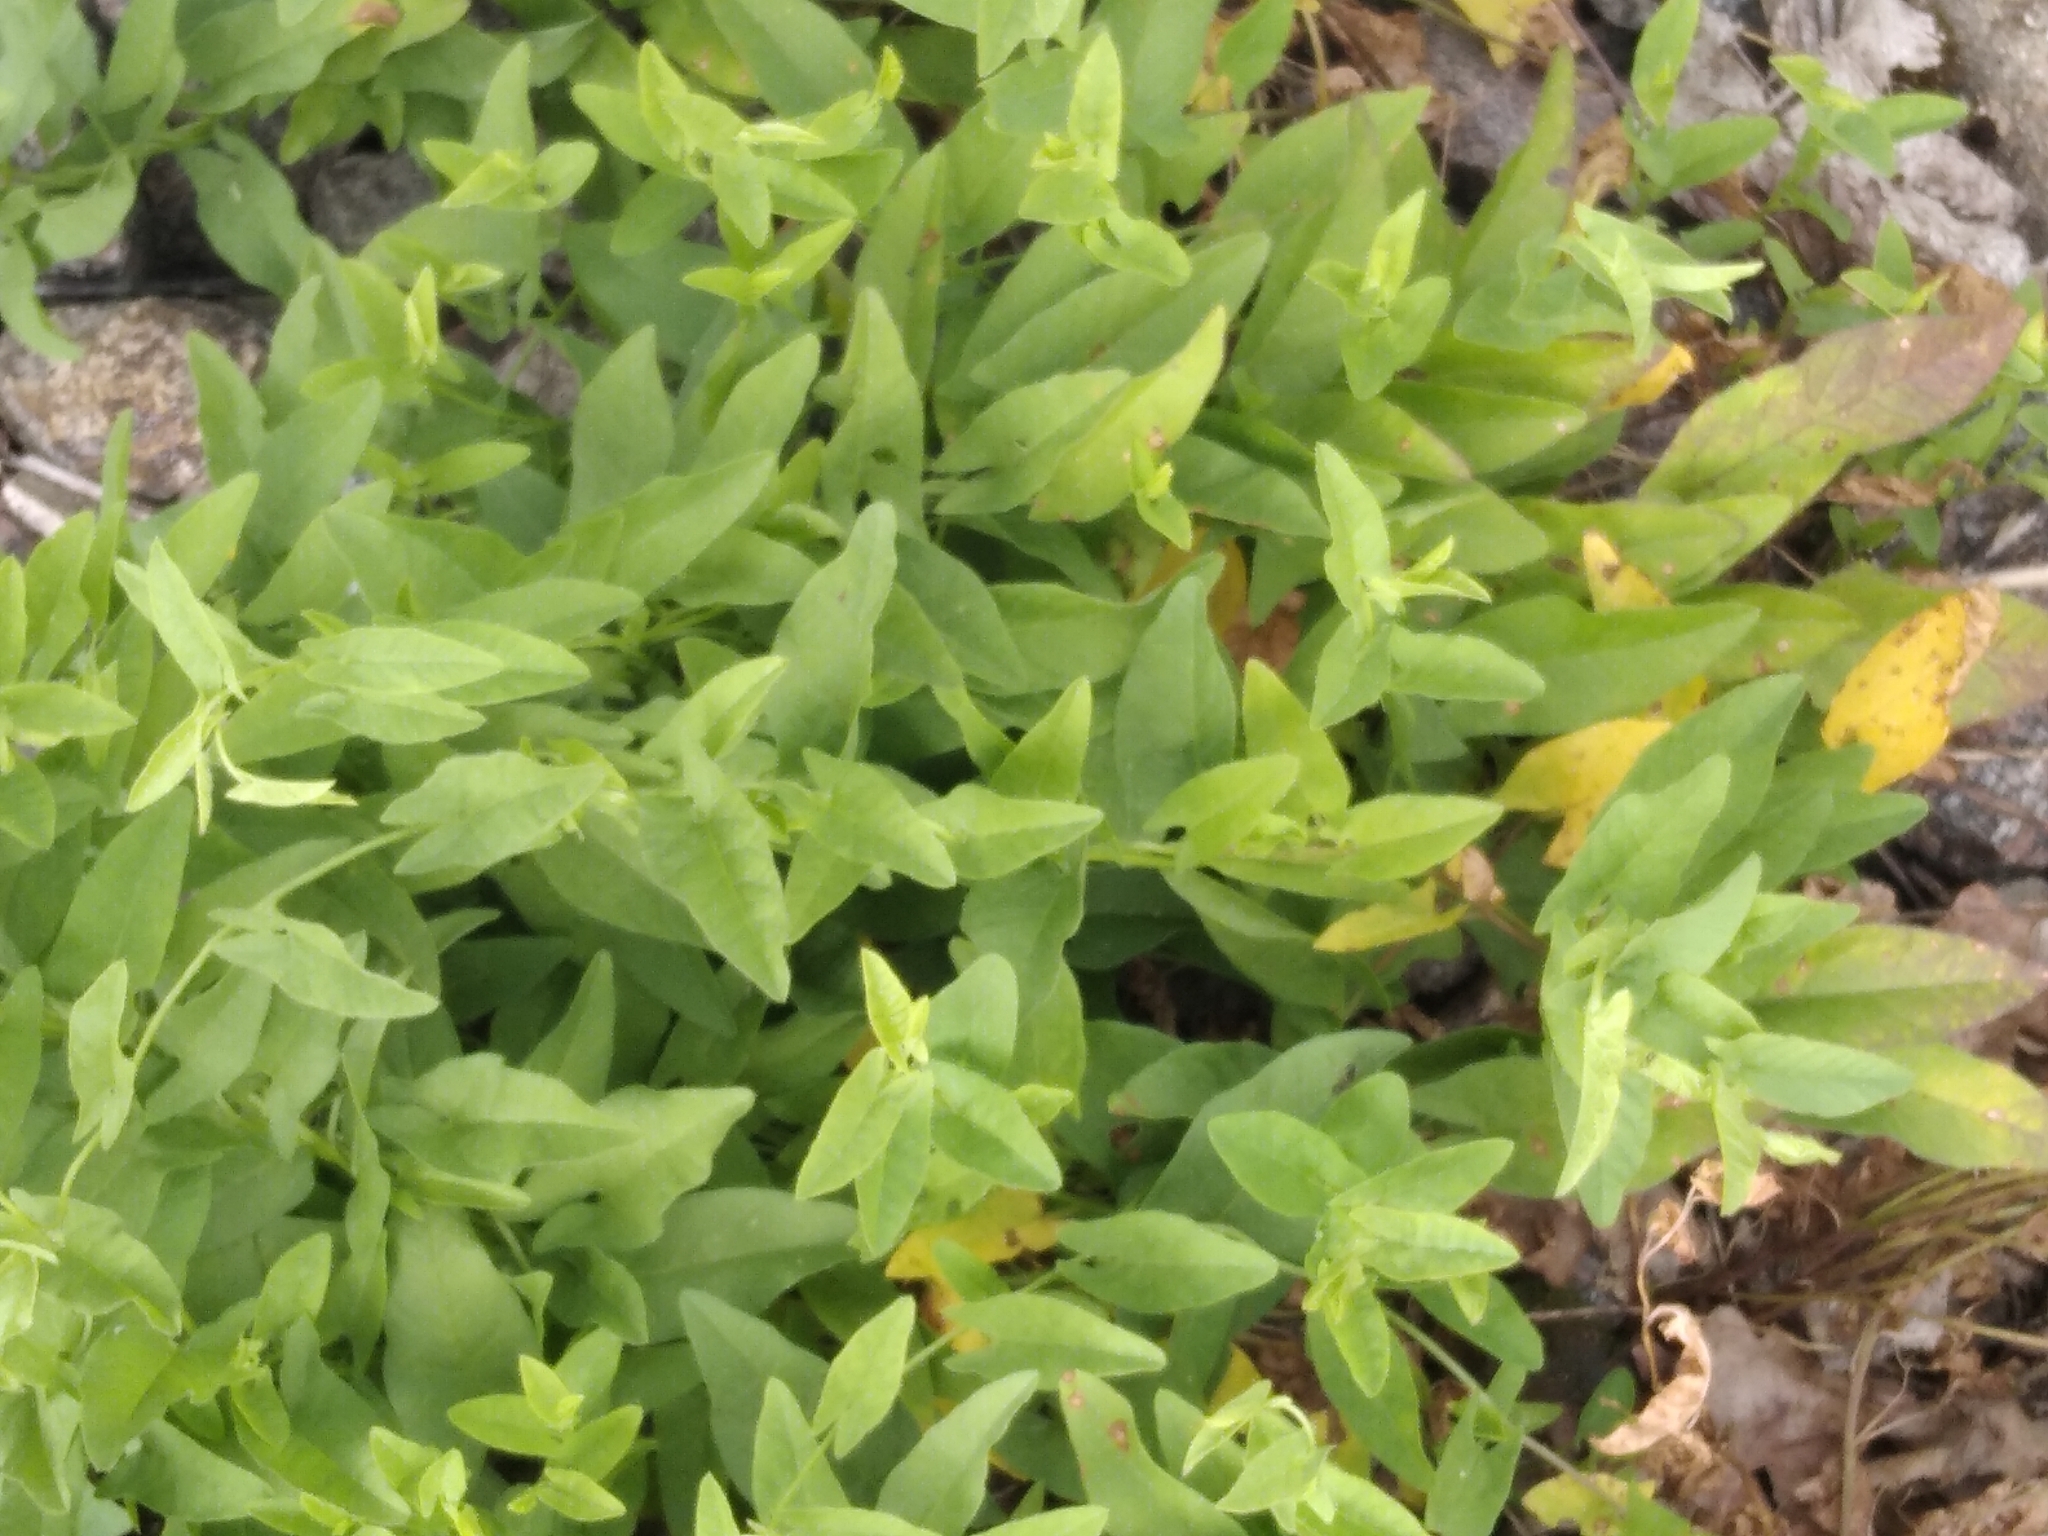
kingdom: Plantae
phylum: Tracheophyta
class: Magnoliopsida
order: Solanales
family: Convolvulaceae
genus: Convolvulus
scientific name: Convolvulus arvensis
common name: Field bindweed
